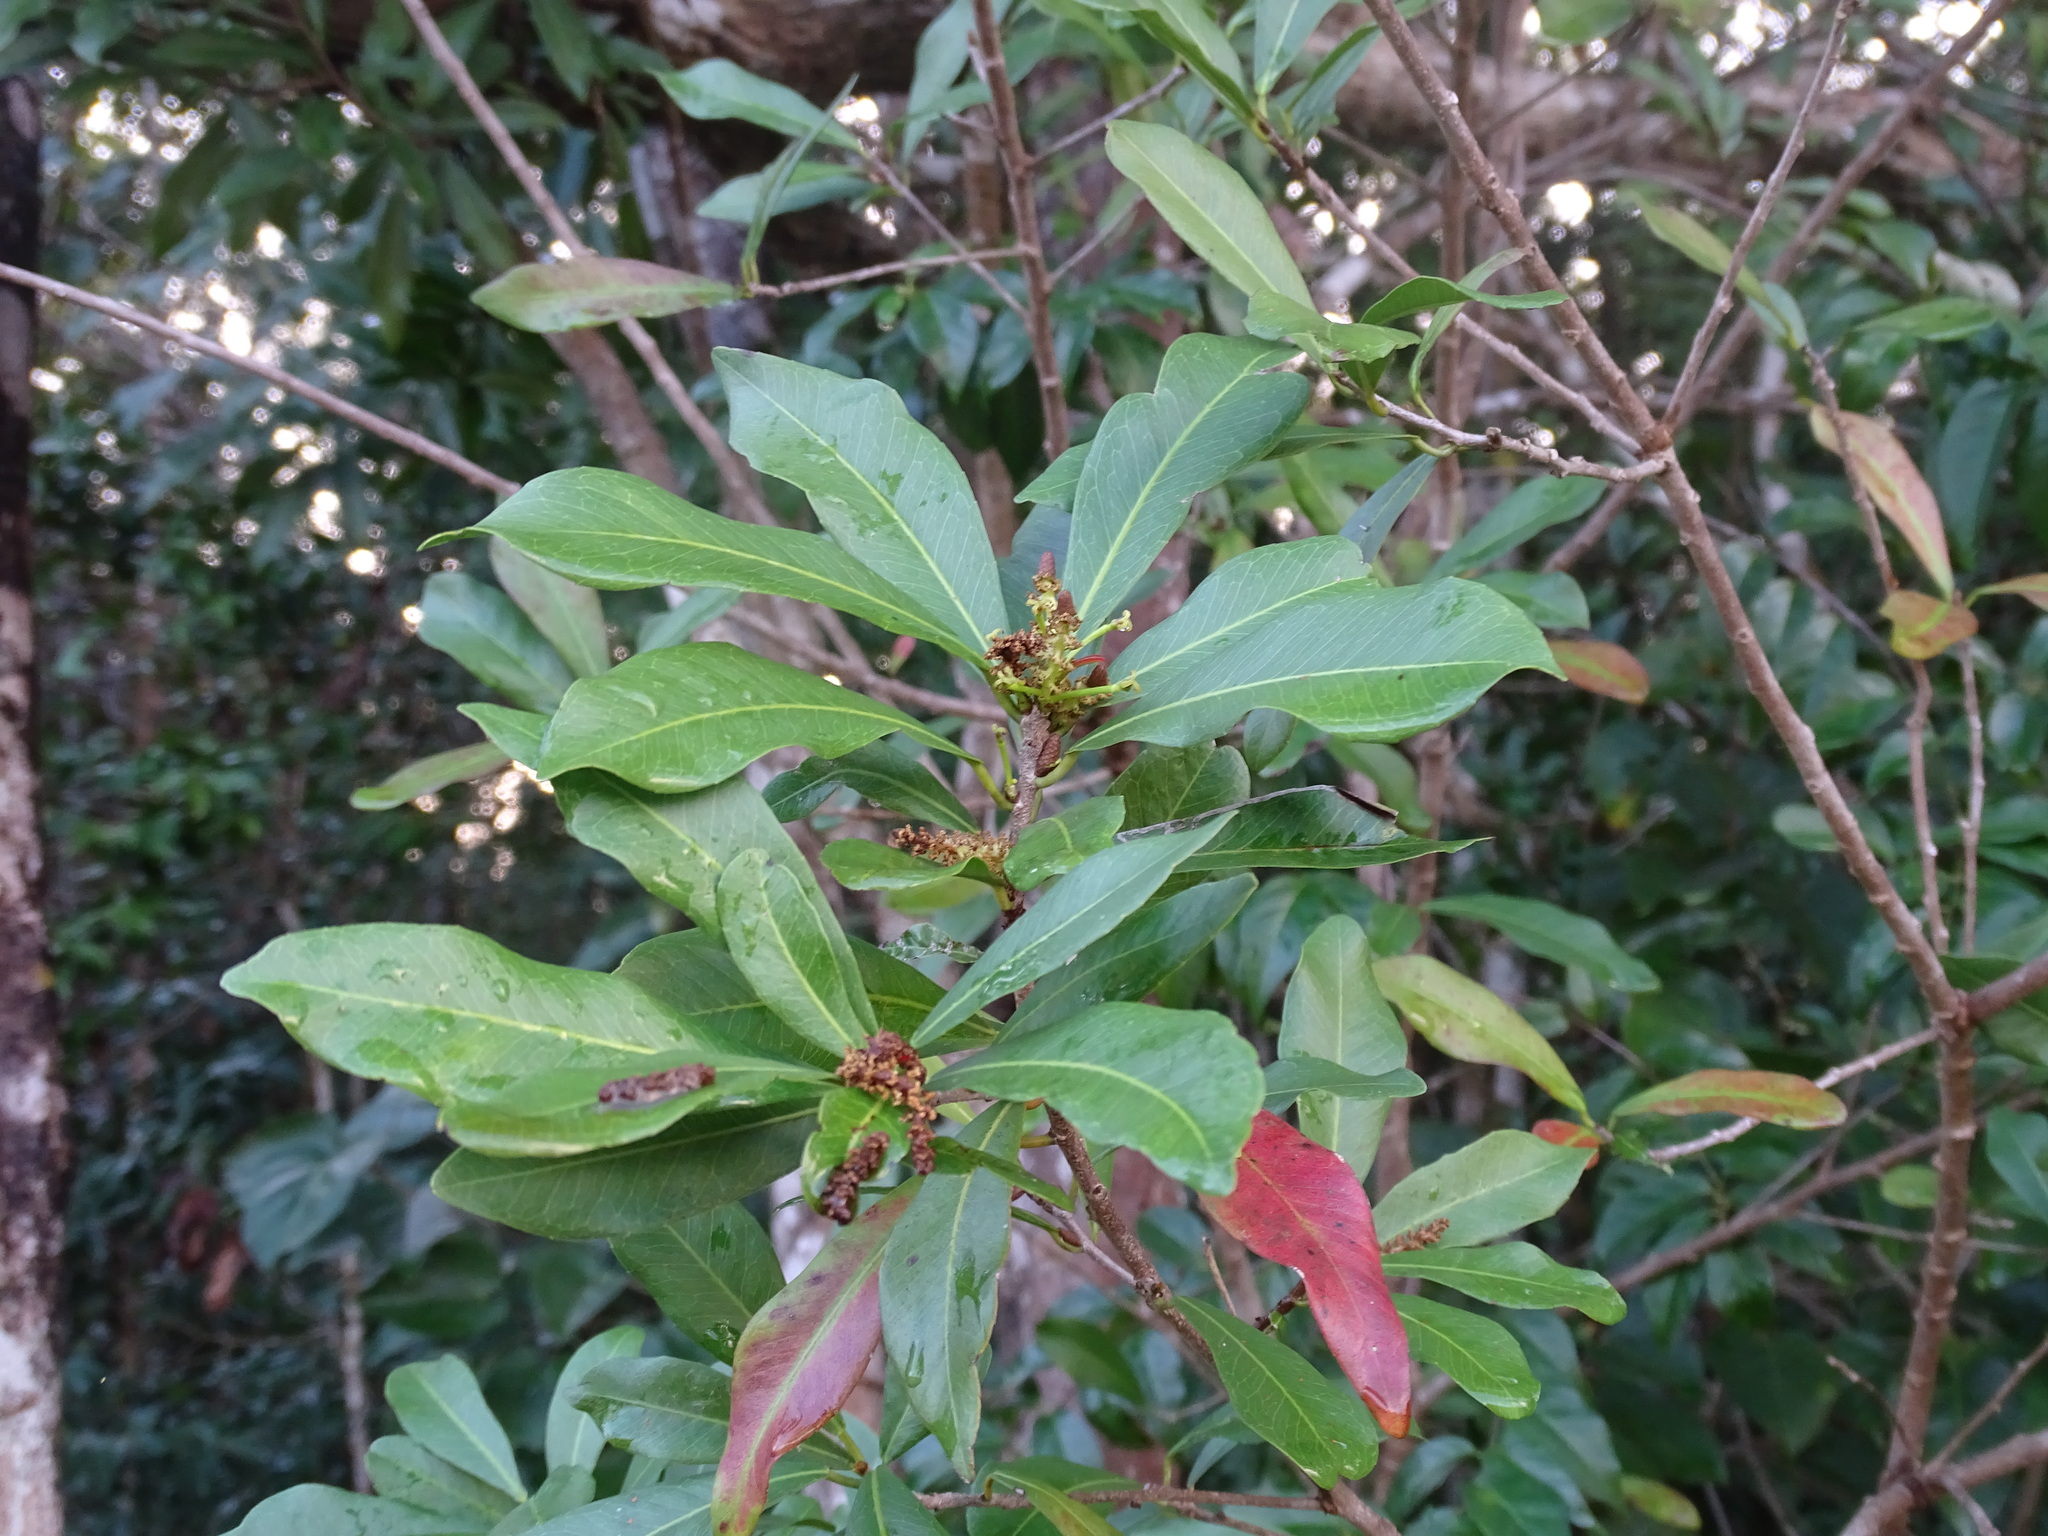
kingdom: Plantae
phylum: Tracheophyta
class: Magnoliopsida
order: Malpighiales
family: Euphorbiaceae
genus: Gymnanthes
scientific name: Gymnanthes lucida
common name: Oysterwood
